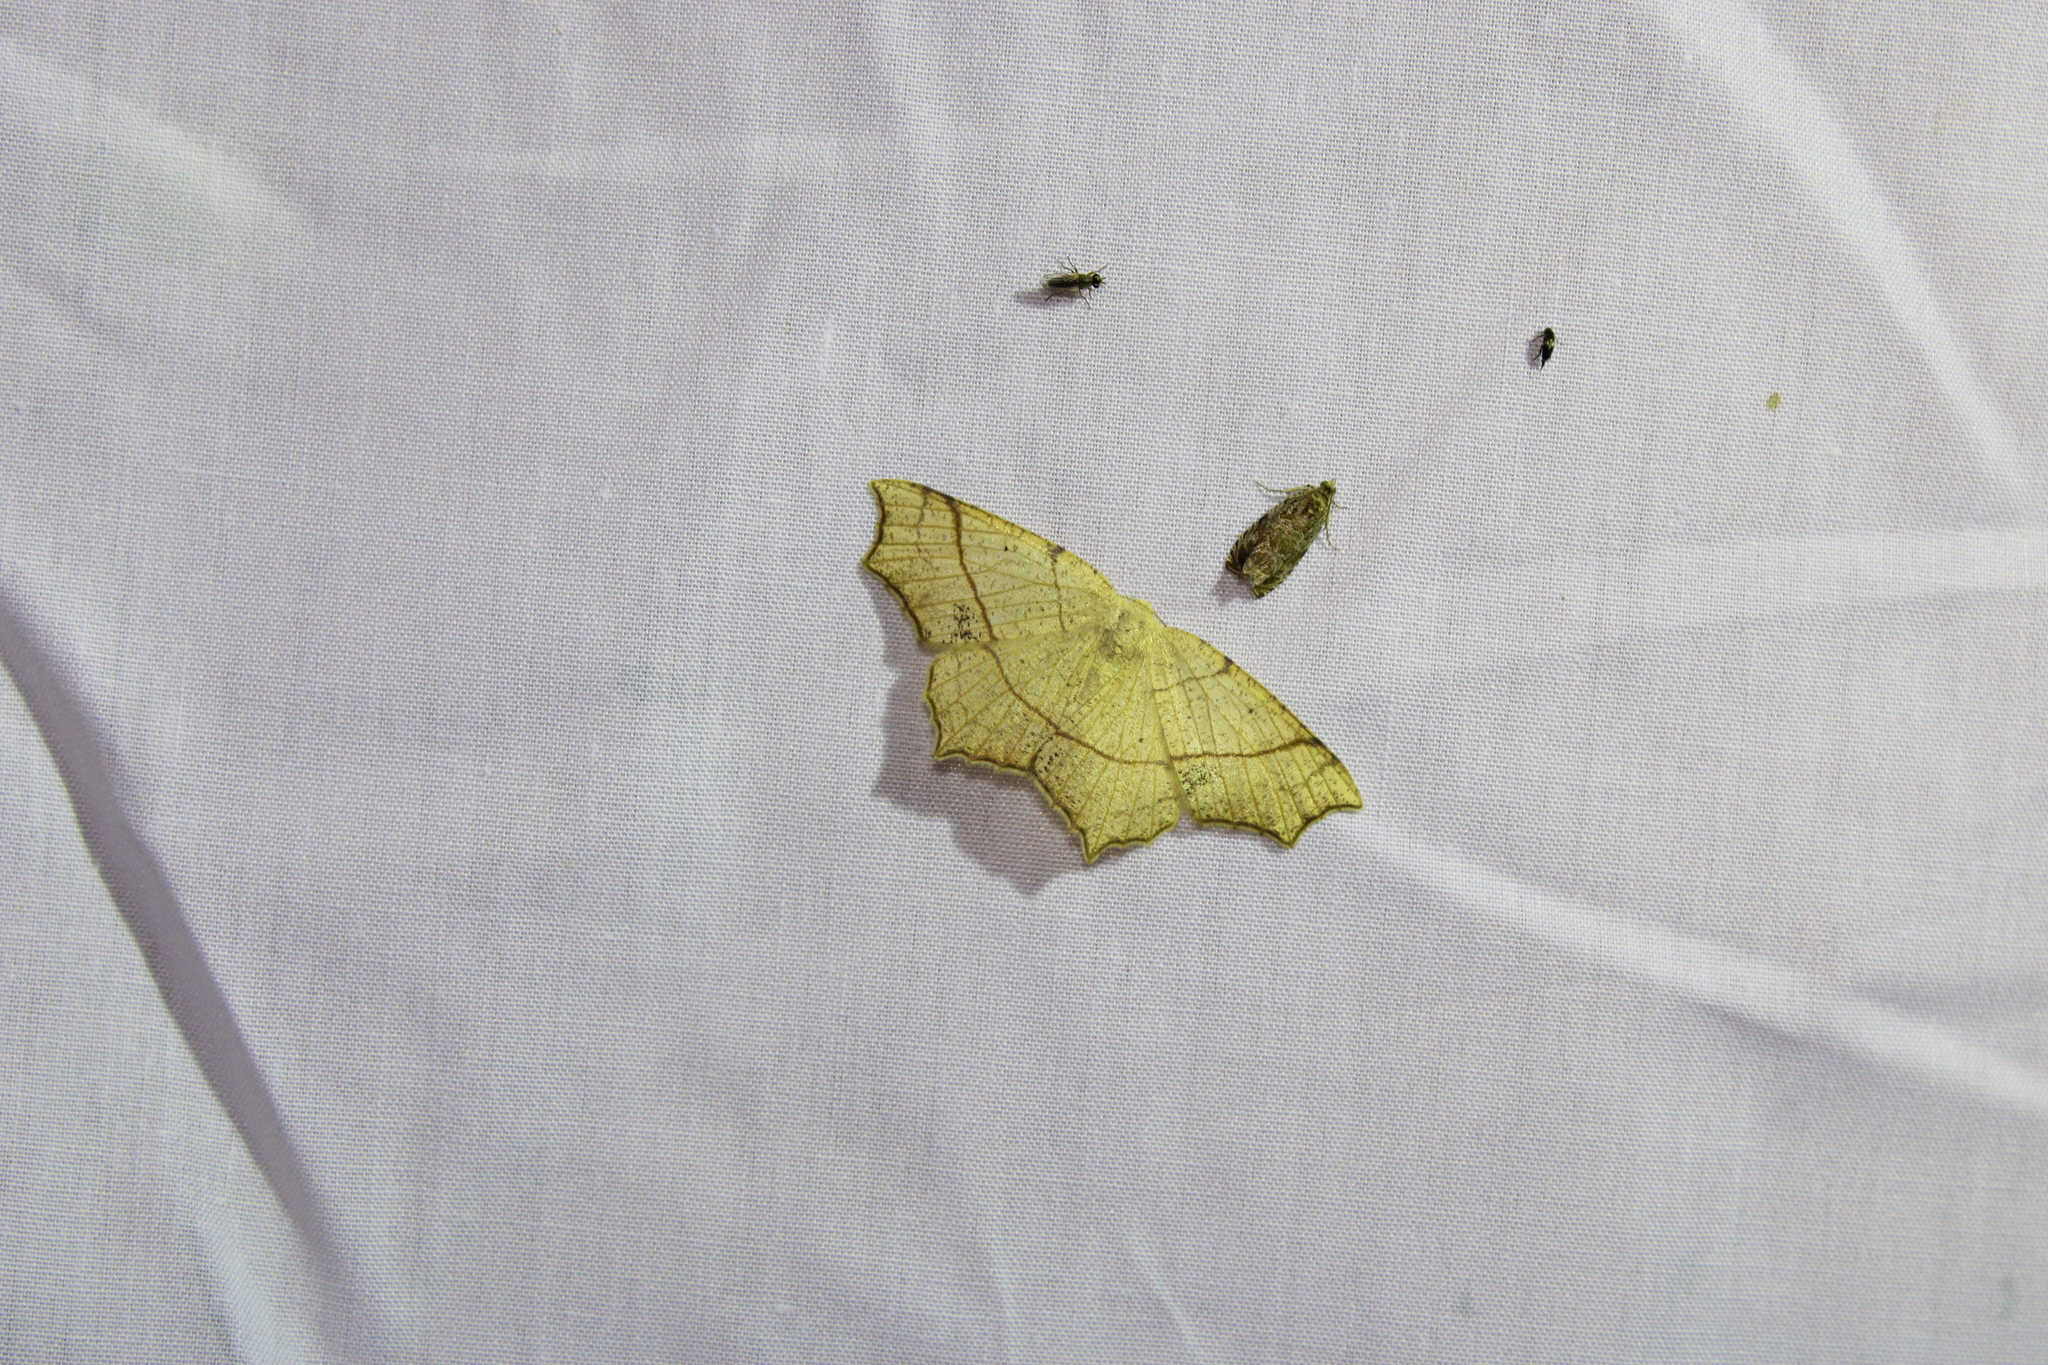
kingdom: Animalia
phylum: Arthropoda
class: Insecta
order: Lepidoptera
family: Geometridae
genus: Besma
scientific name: Besma quercivoraria
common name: Oak besma
